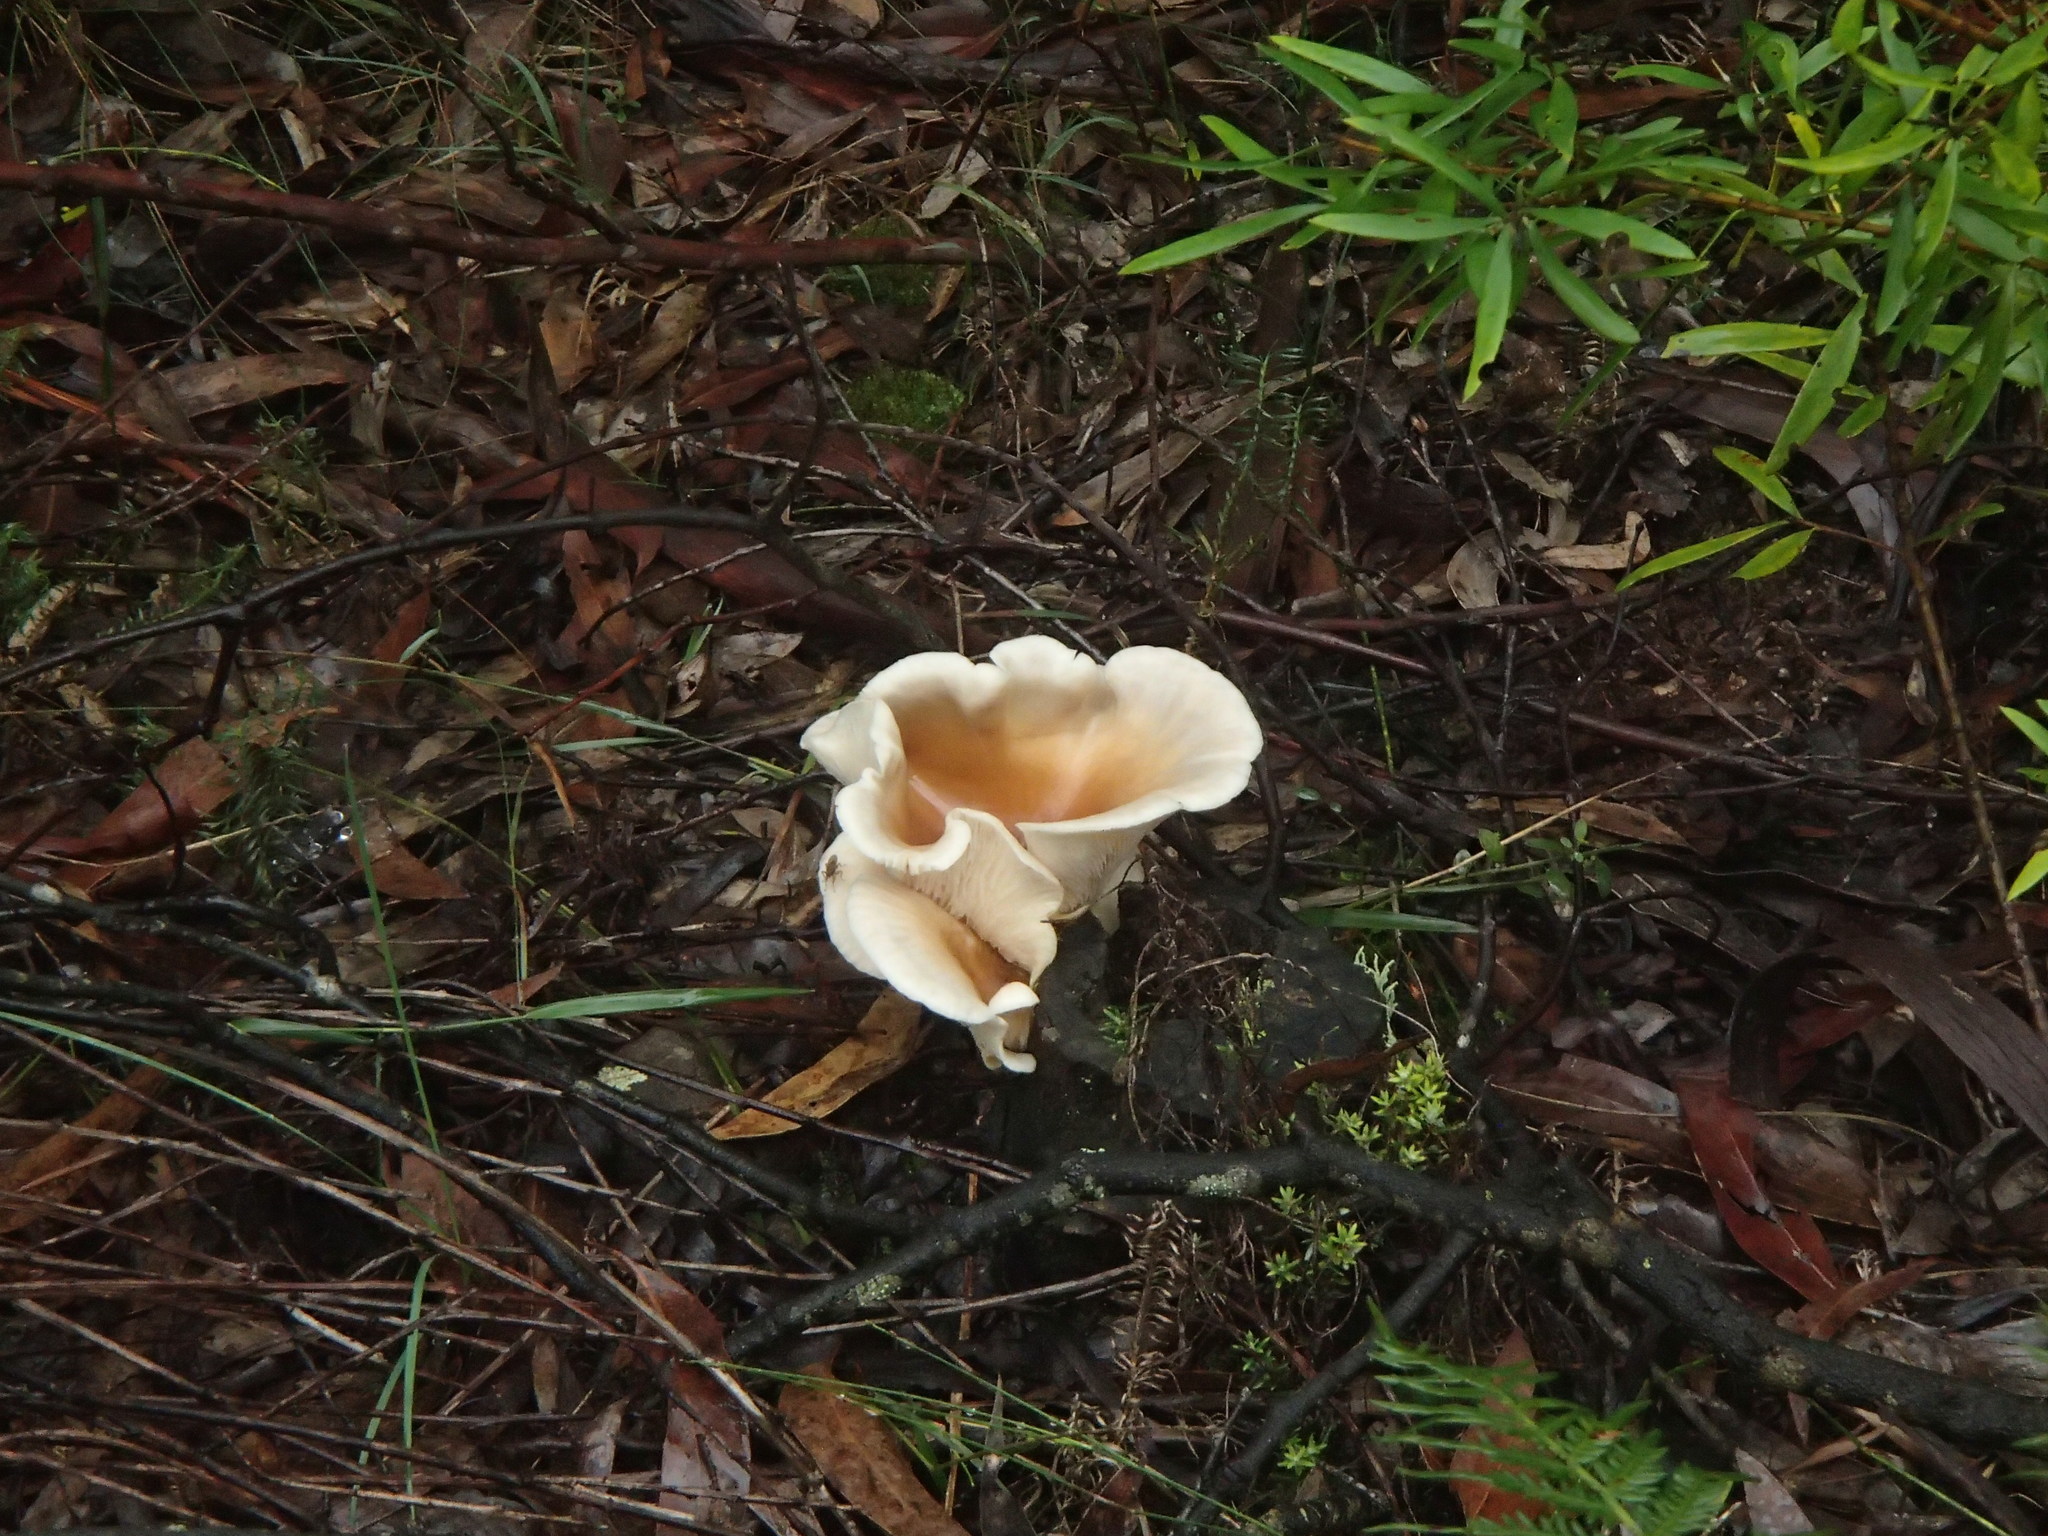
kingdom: Fungi
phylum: Basidiomycota
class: Agaricomycetes
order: Agaricales
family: Omphalotaceae
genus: Omphalotus
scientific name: Omphalotus nidiformis
